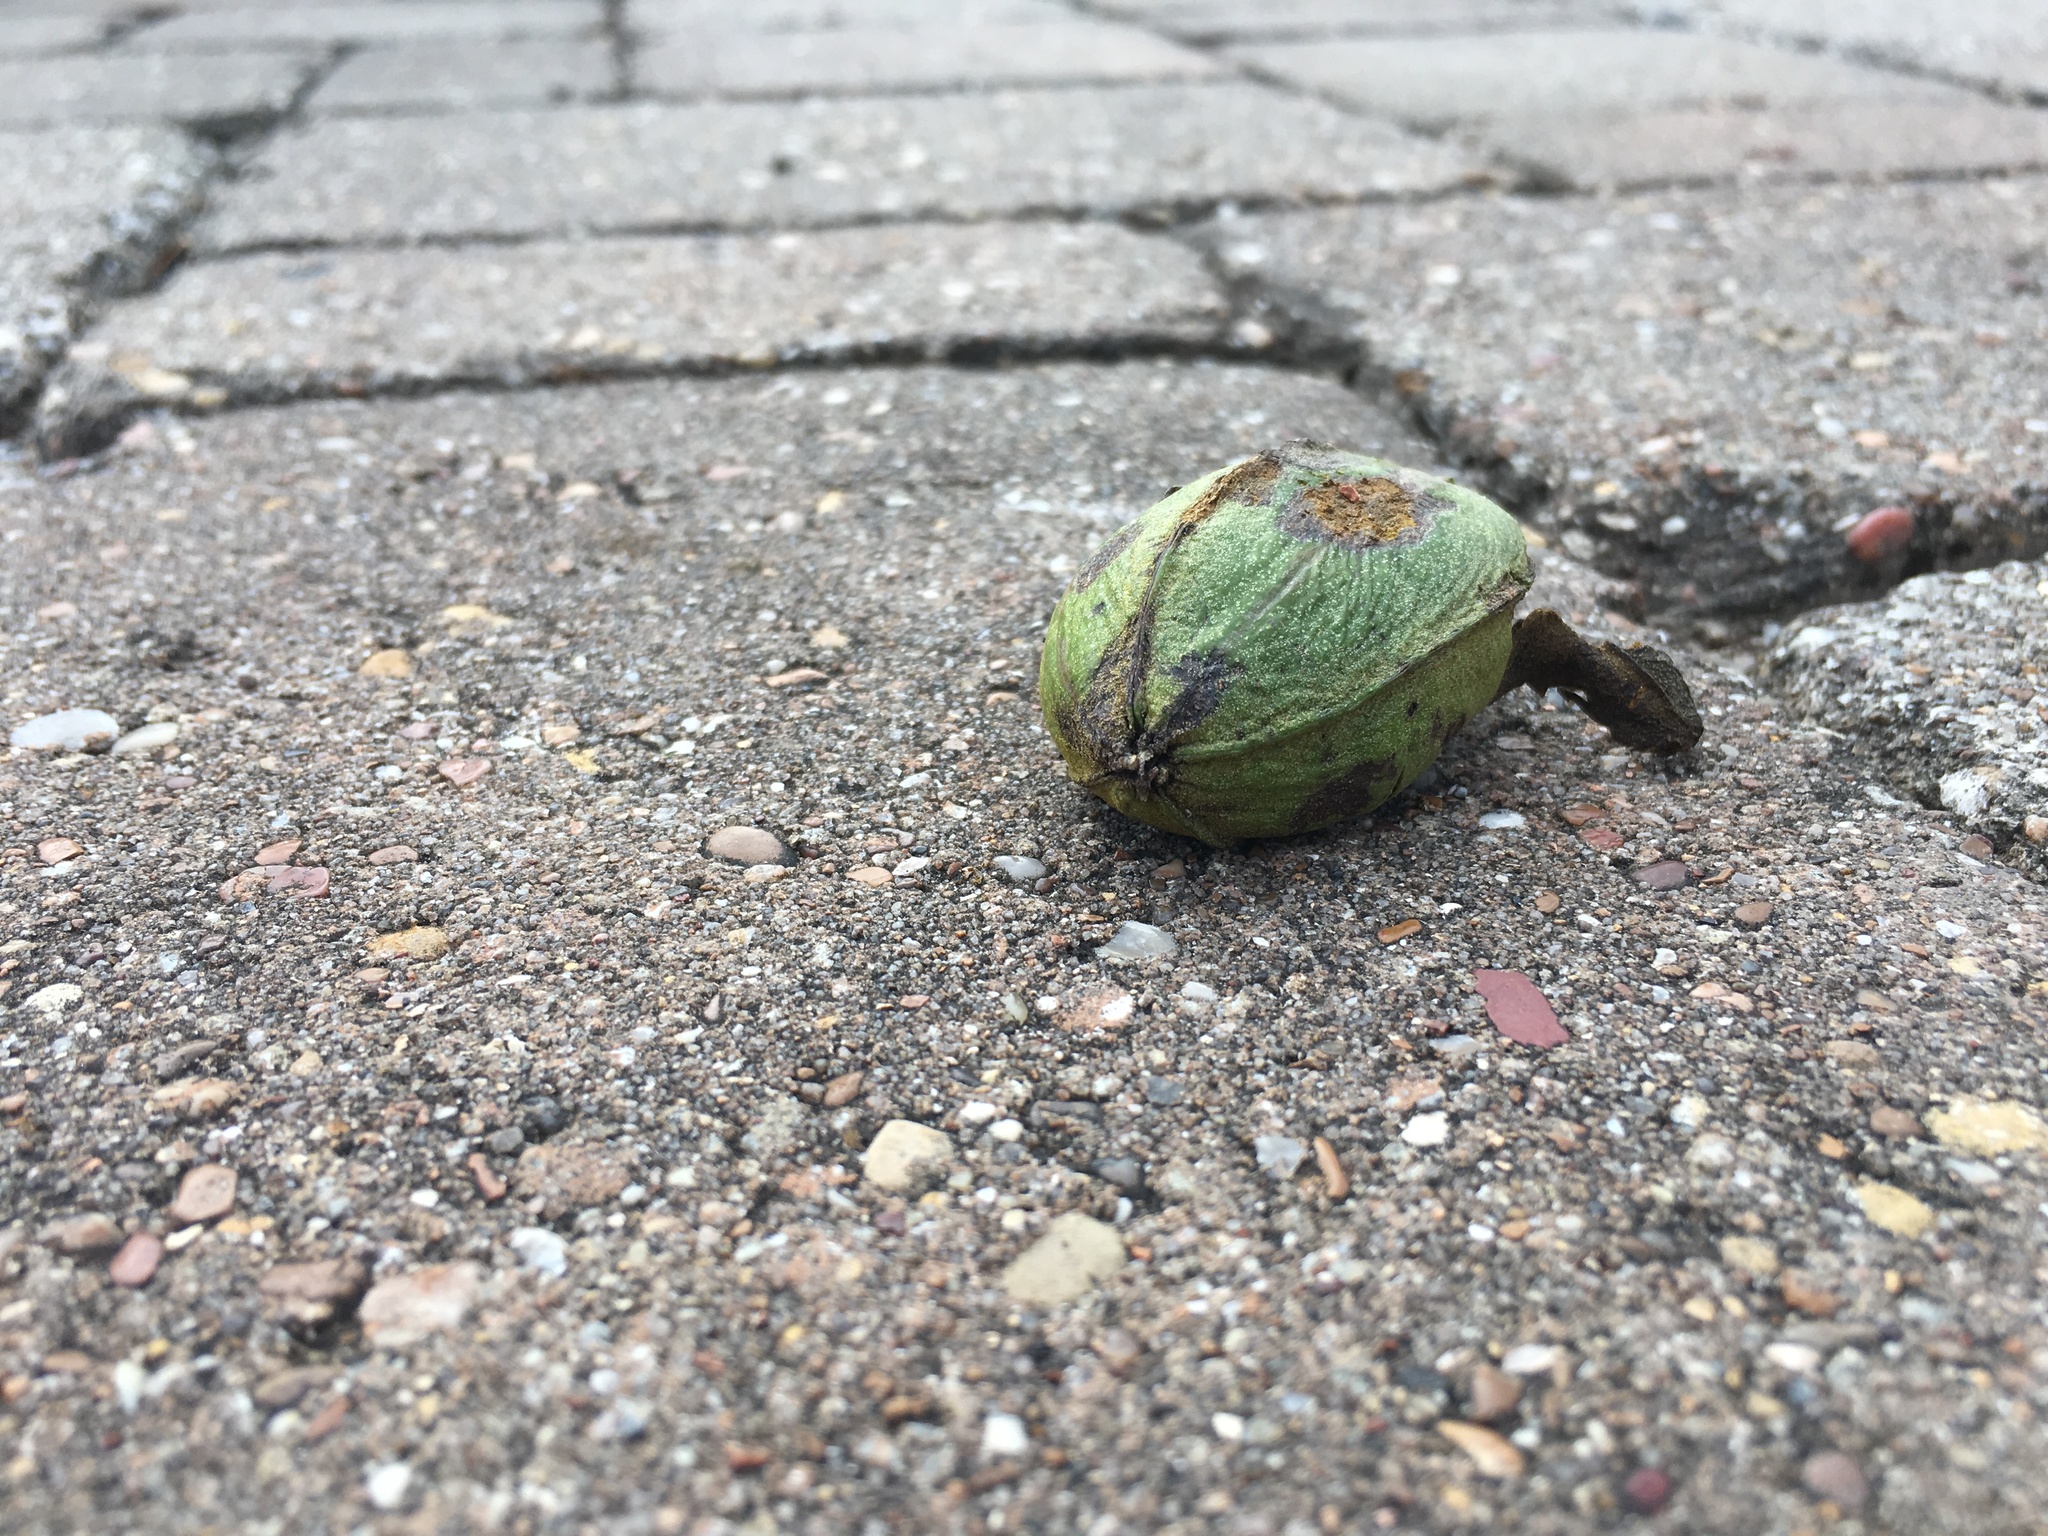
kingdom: Plantae
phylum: Tracheophyta
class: Magnoliopsida
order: Fagales
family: Juglandaceae
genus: Carya
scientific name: Carya illinoinensis
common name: Pecan
